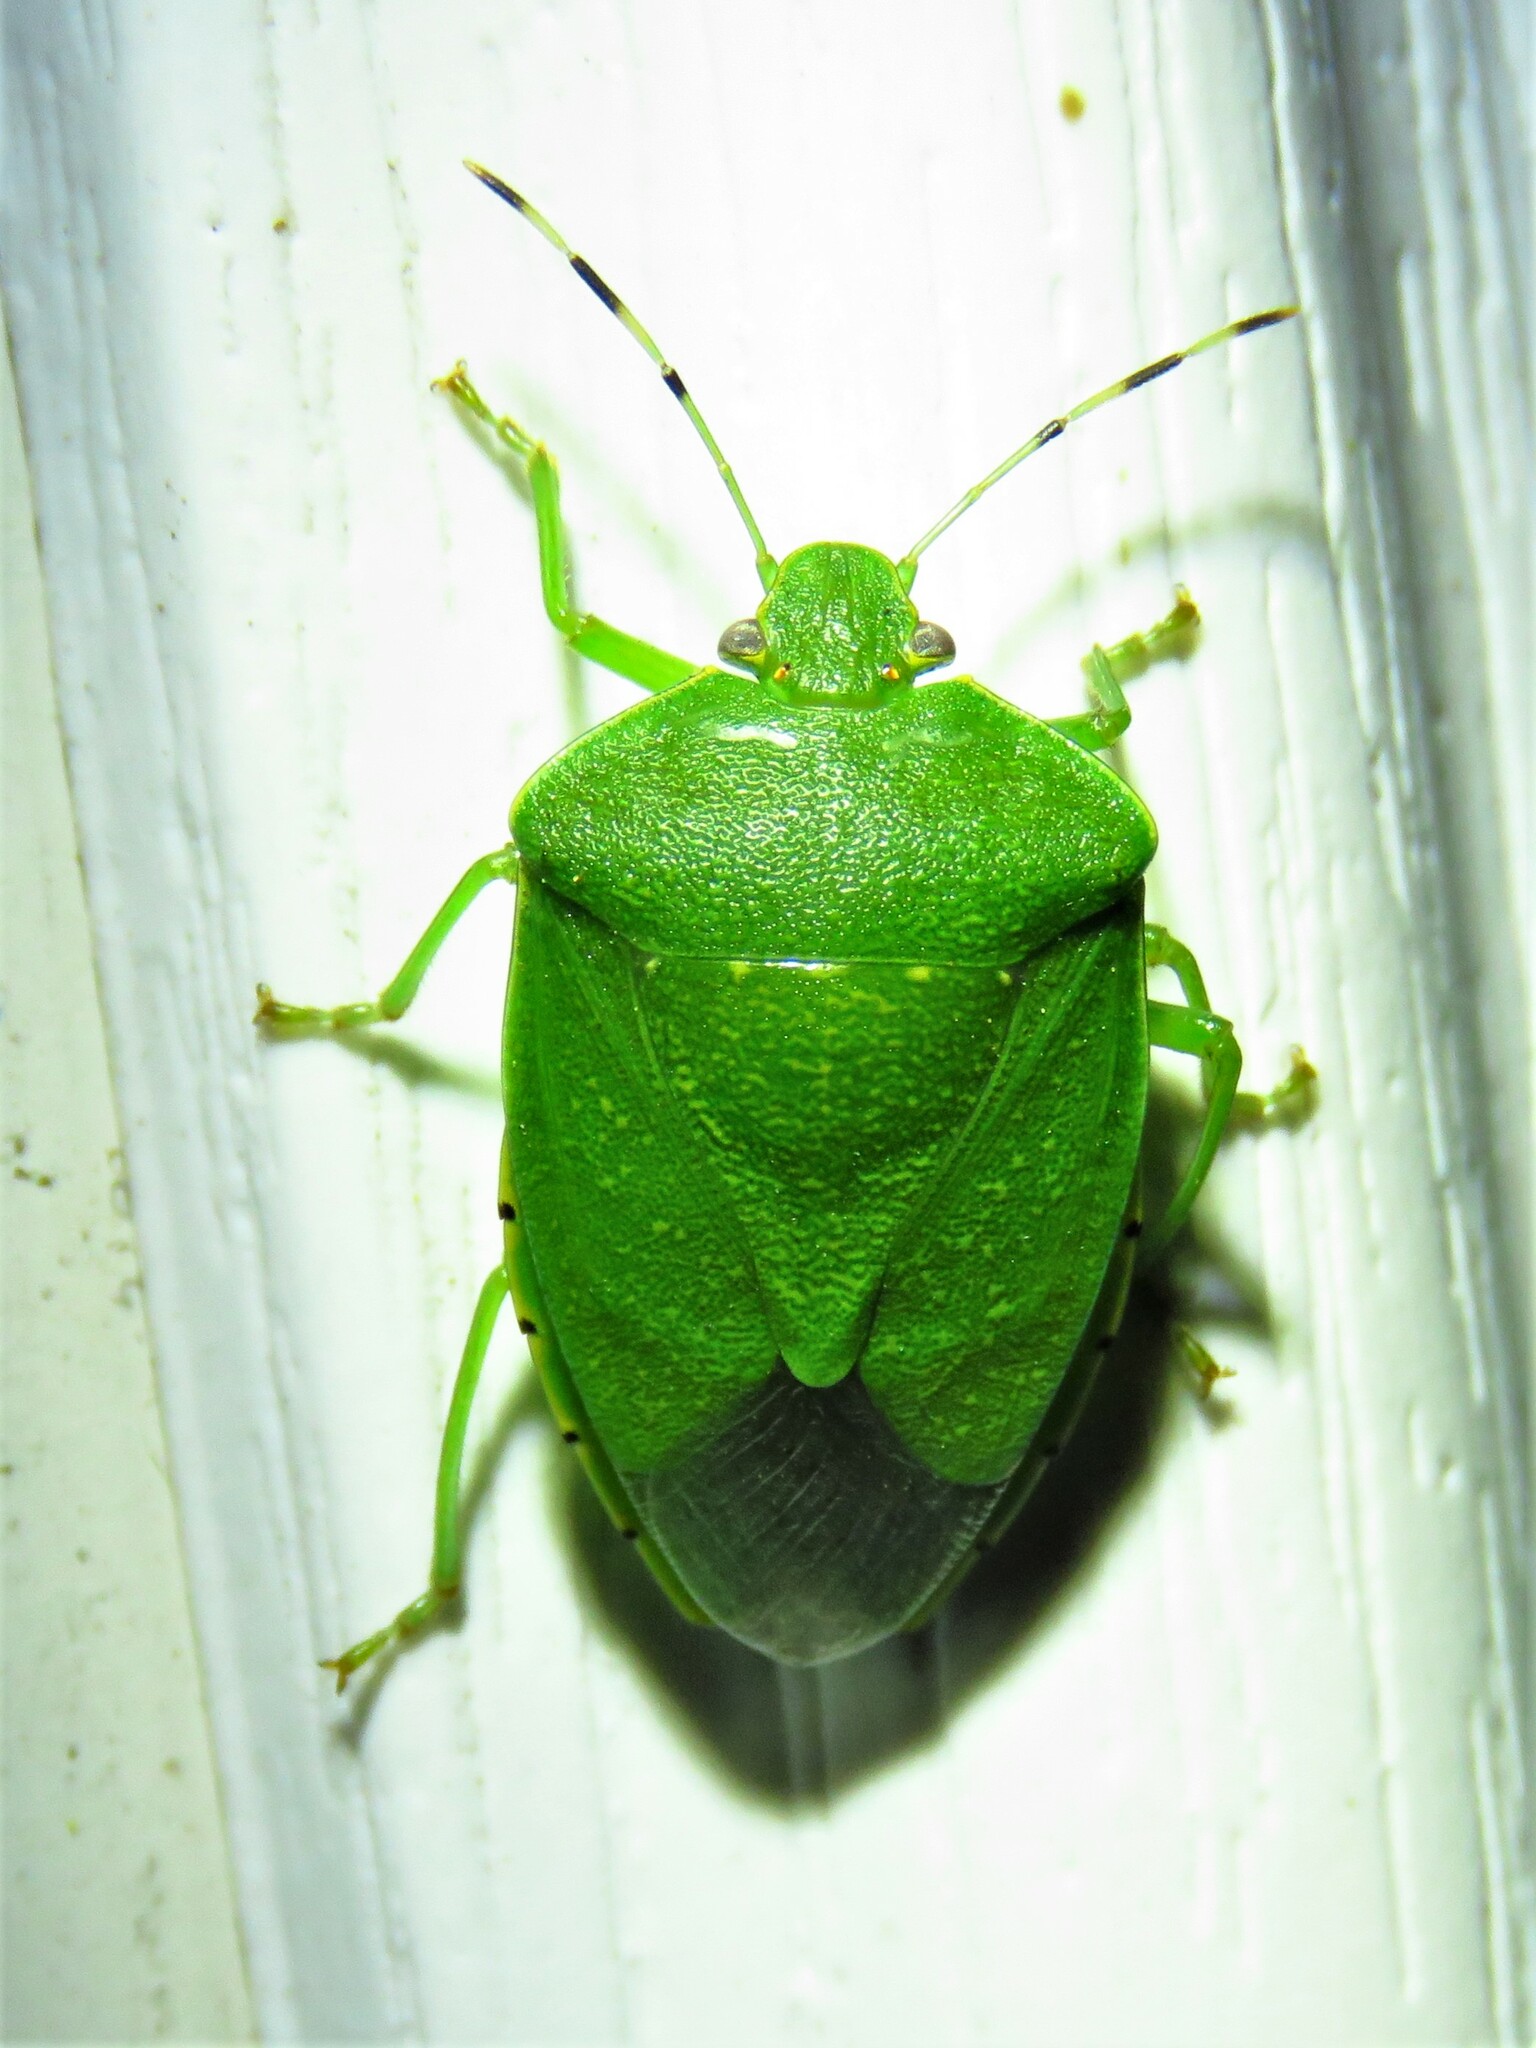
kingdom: Animalia
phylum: Arthropoda
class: Insecta
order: Hemiptera
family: Pentatomidae
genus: Chinavia
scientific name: Chinavia hilaris
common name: Green stink bug
